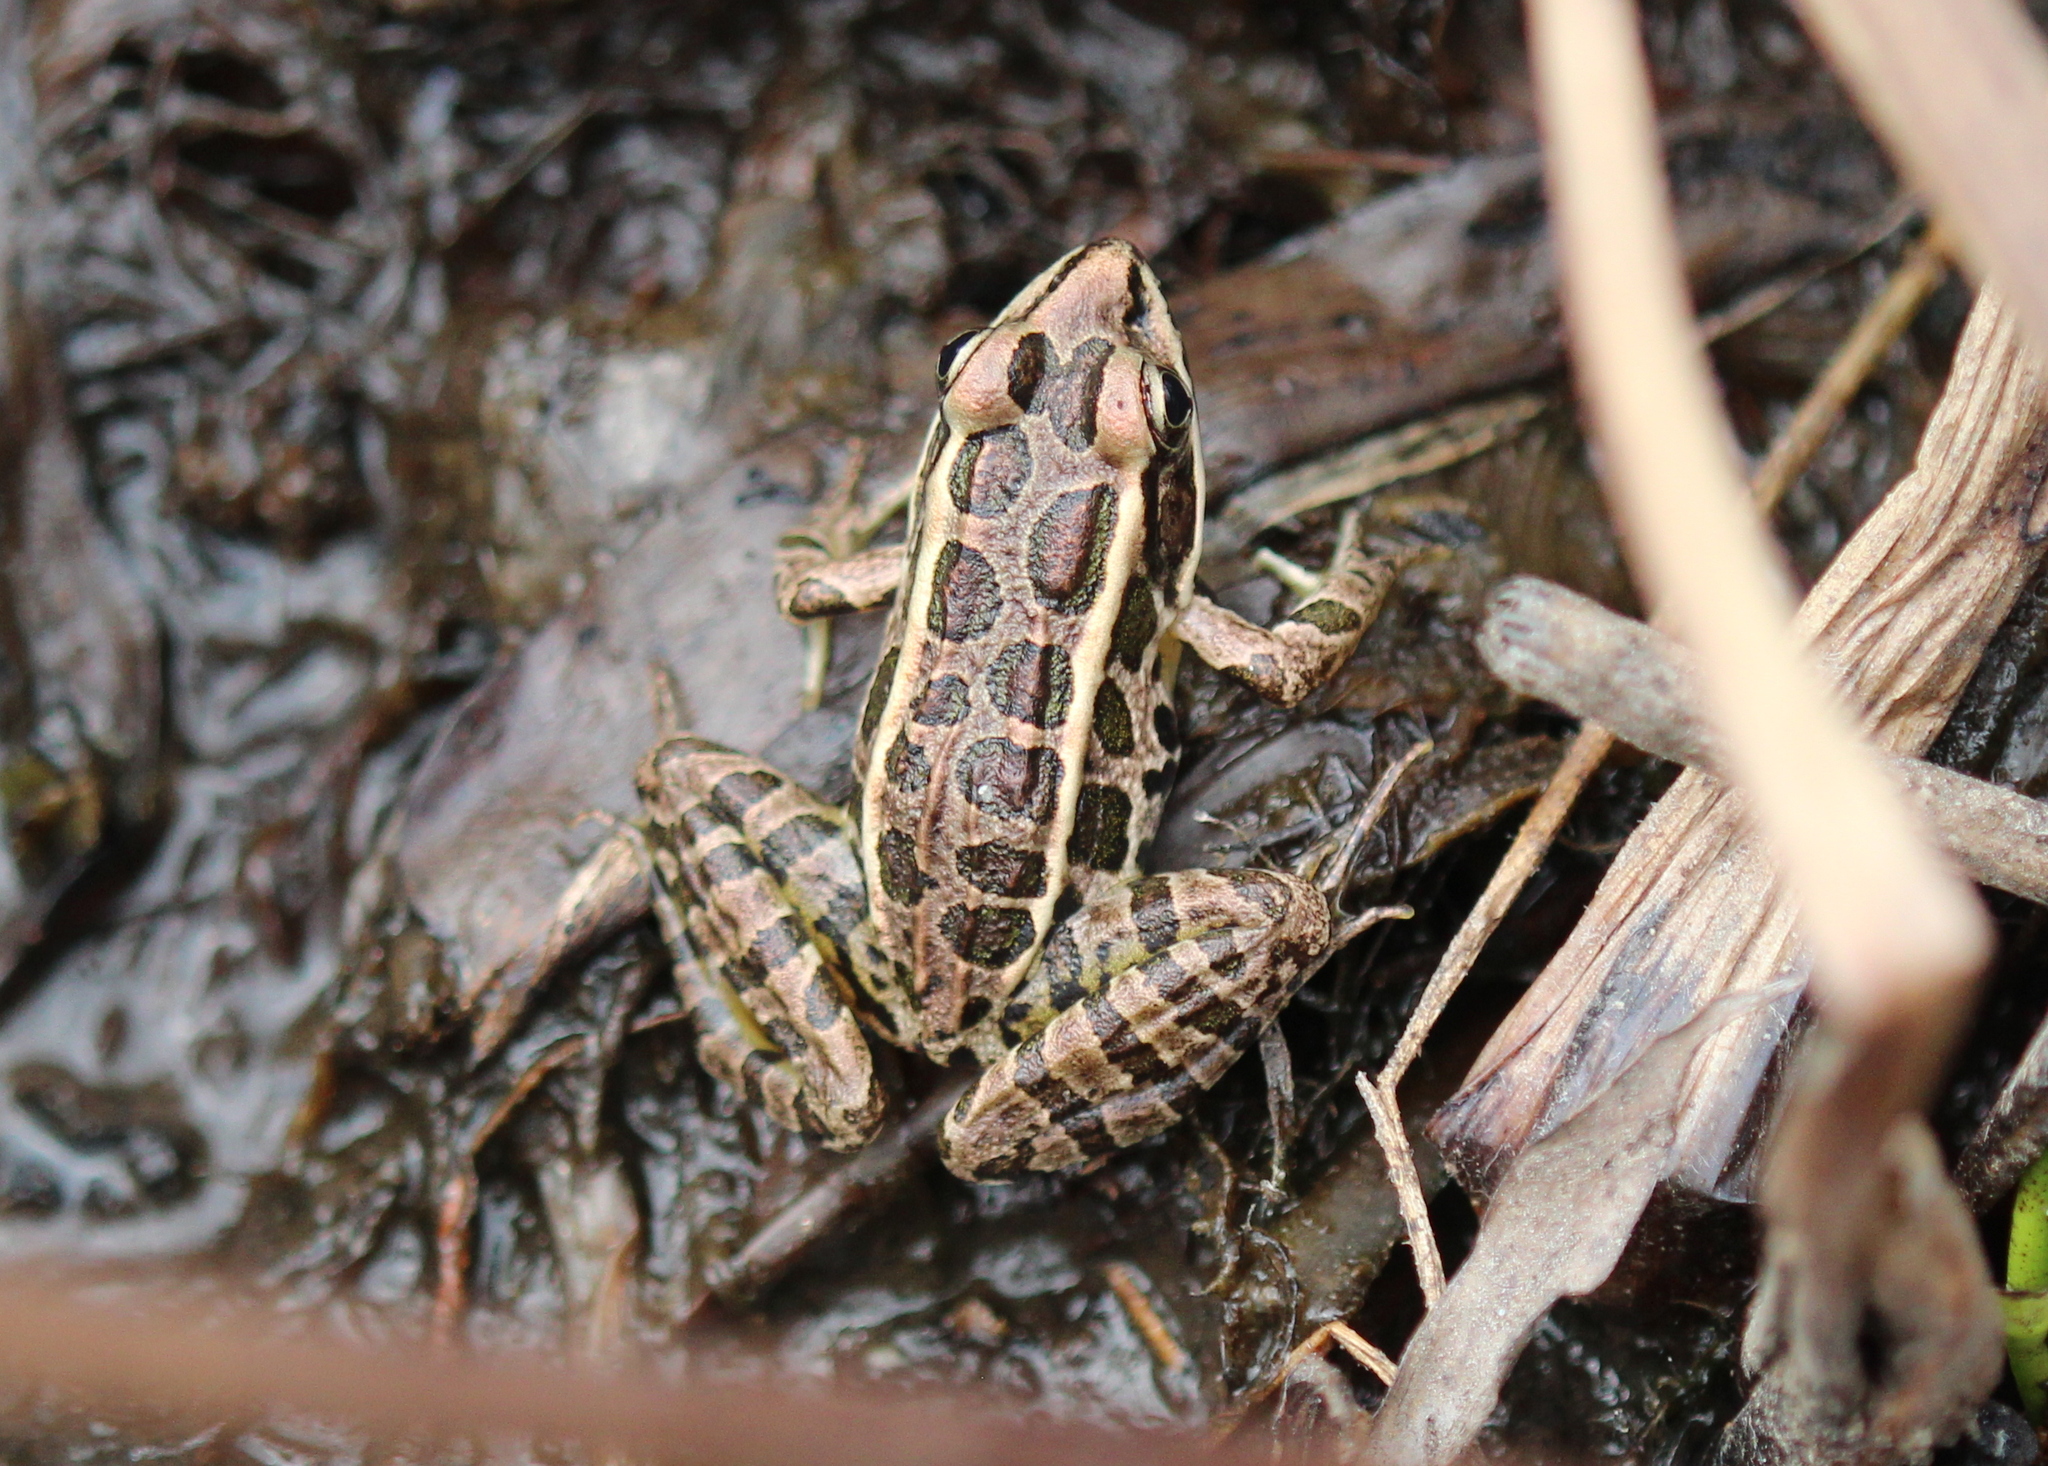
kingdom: Animalia
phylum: Chordata
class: Amphibia
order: Anura
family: Ranidae
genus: Lithobates
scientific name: Lithobates palustris
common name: Pickerel frog
